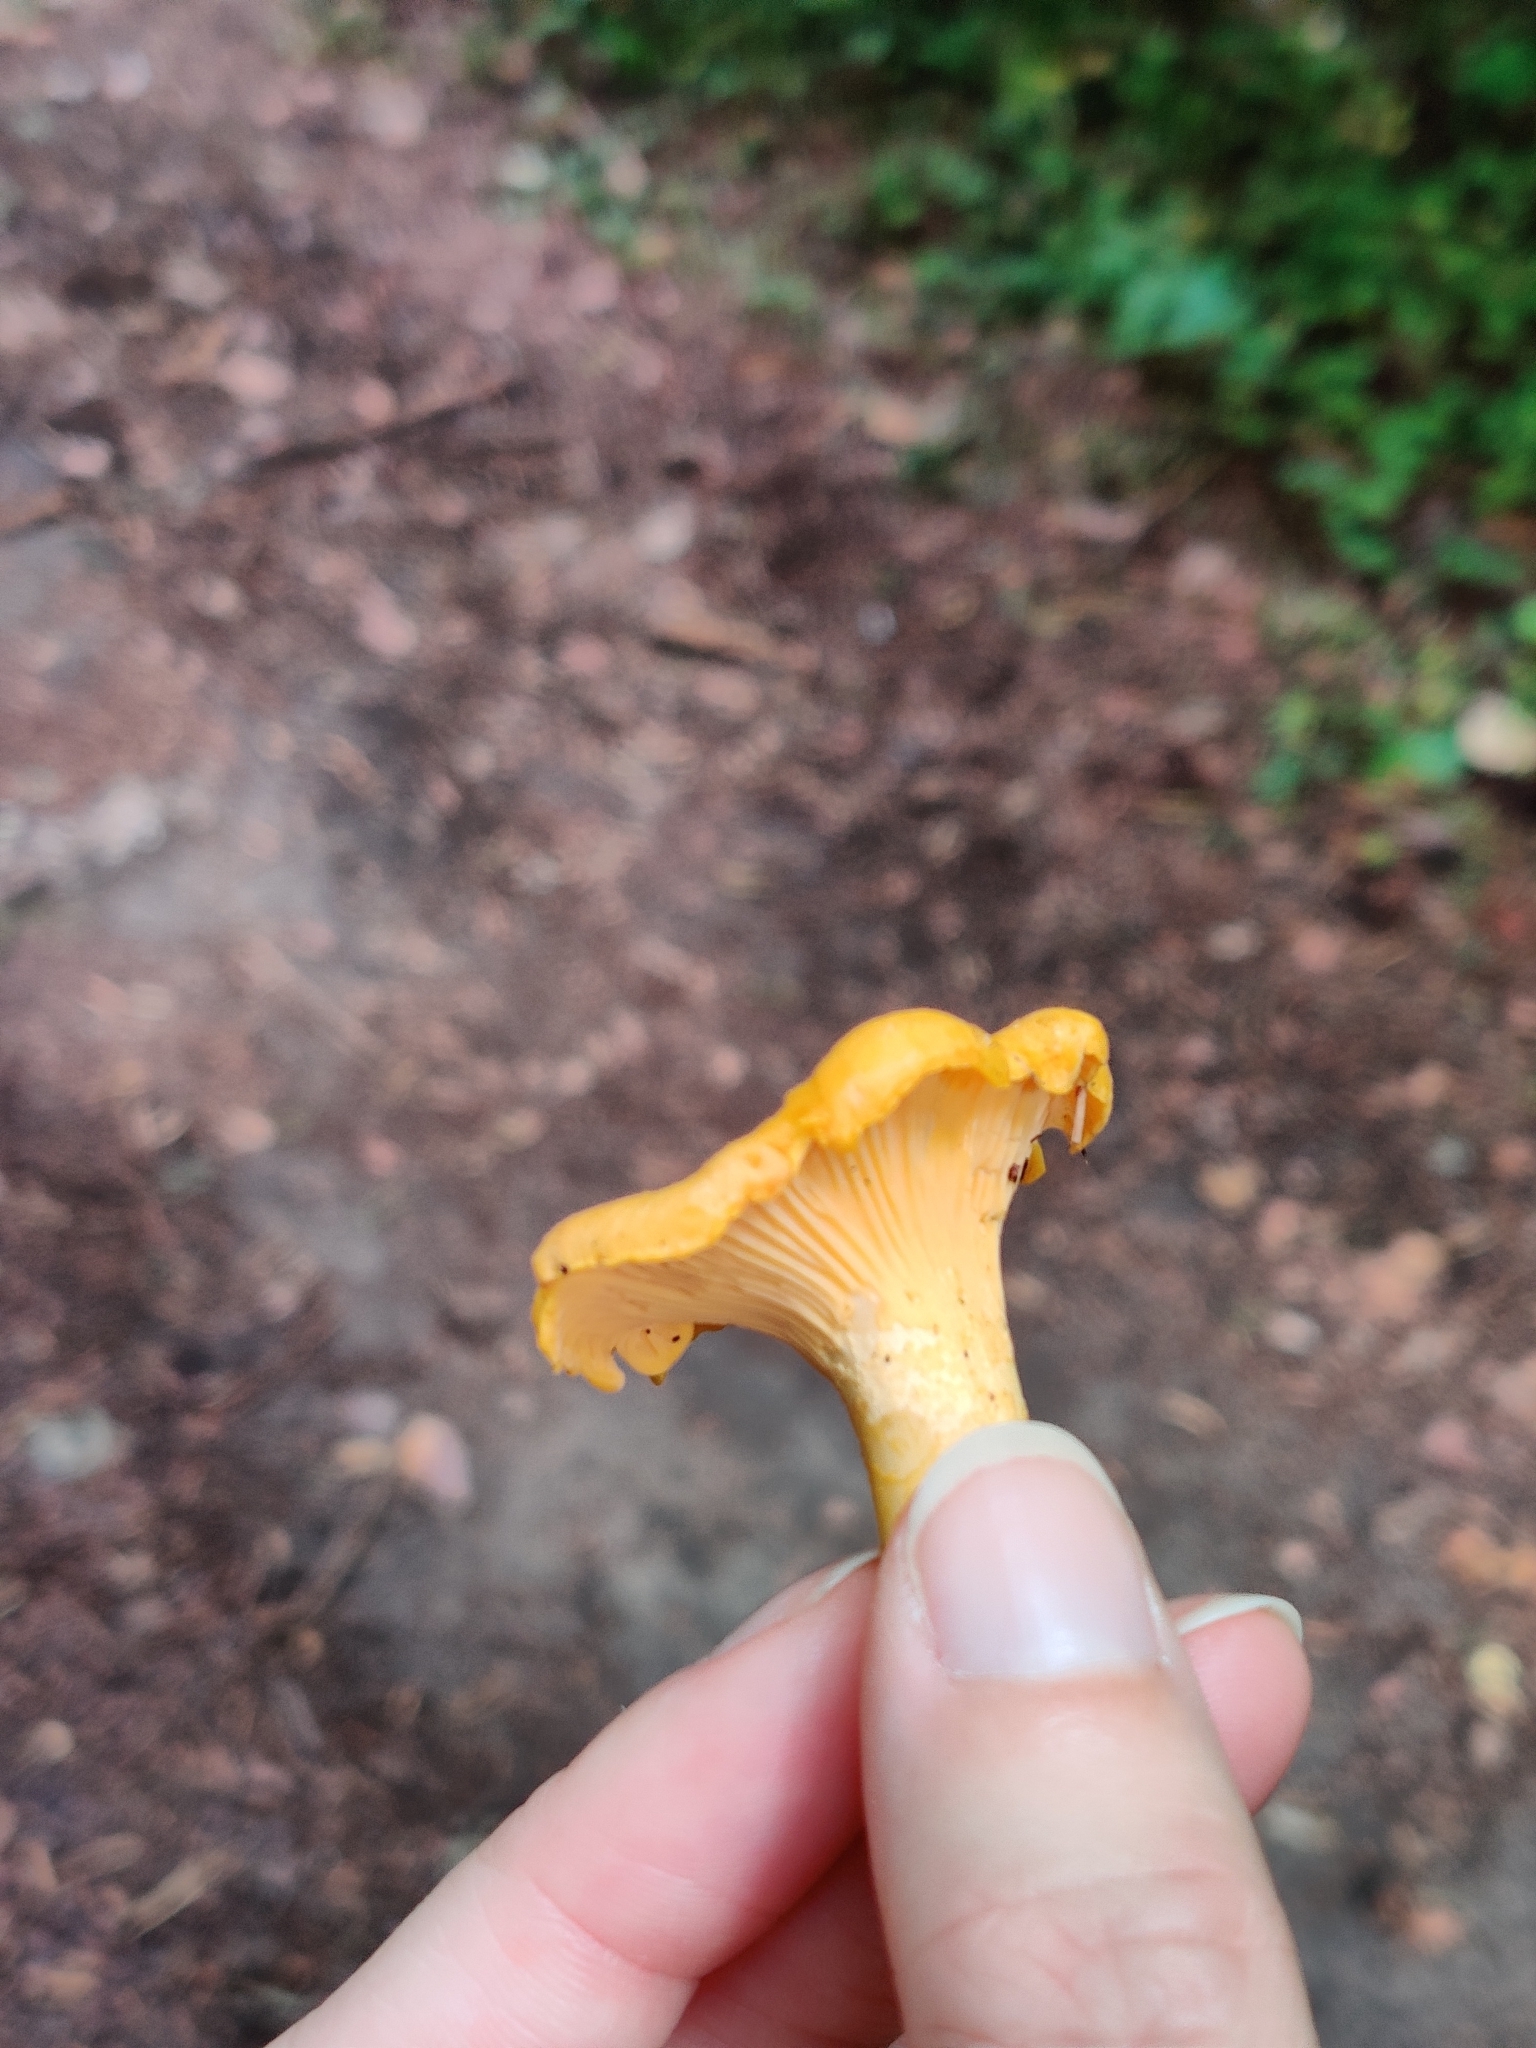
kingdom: Fungi
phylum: Basidiomycota
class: Agaricomycetes
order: Cantharellales
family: Hydnaceae
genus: Cantharellus
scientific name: Cantharellus cibarius
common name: Chanterelle
